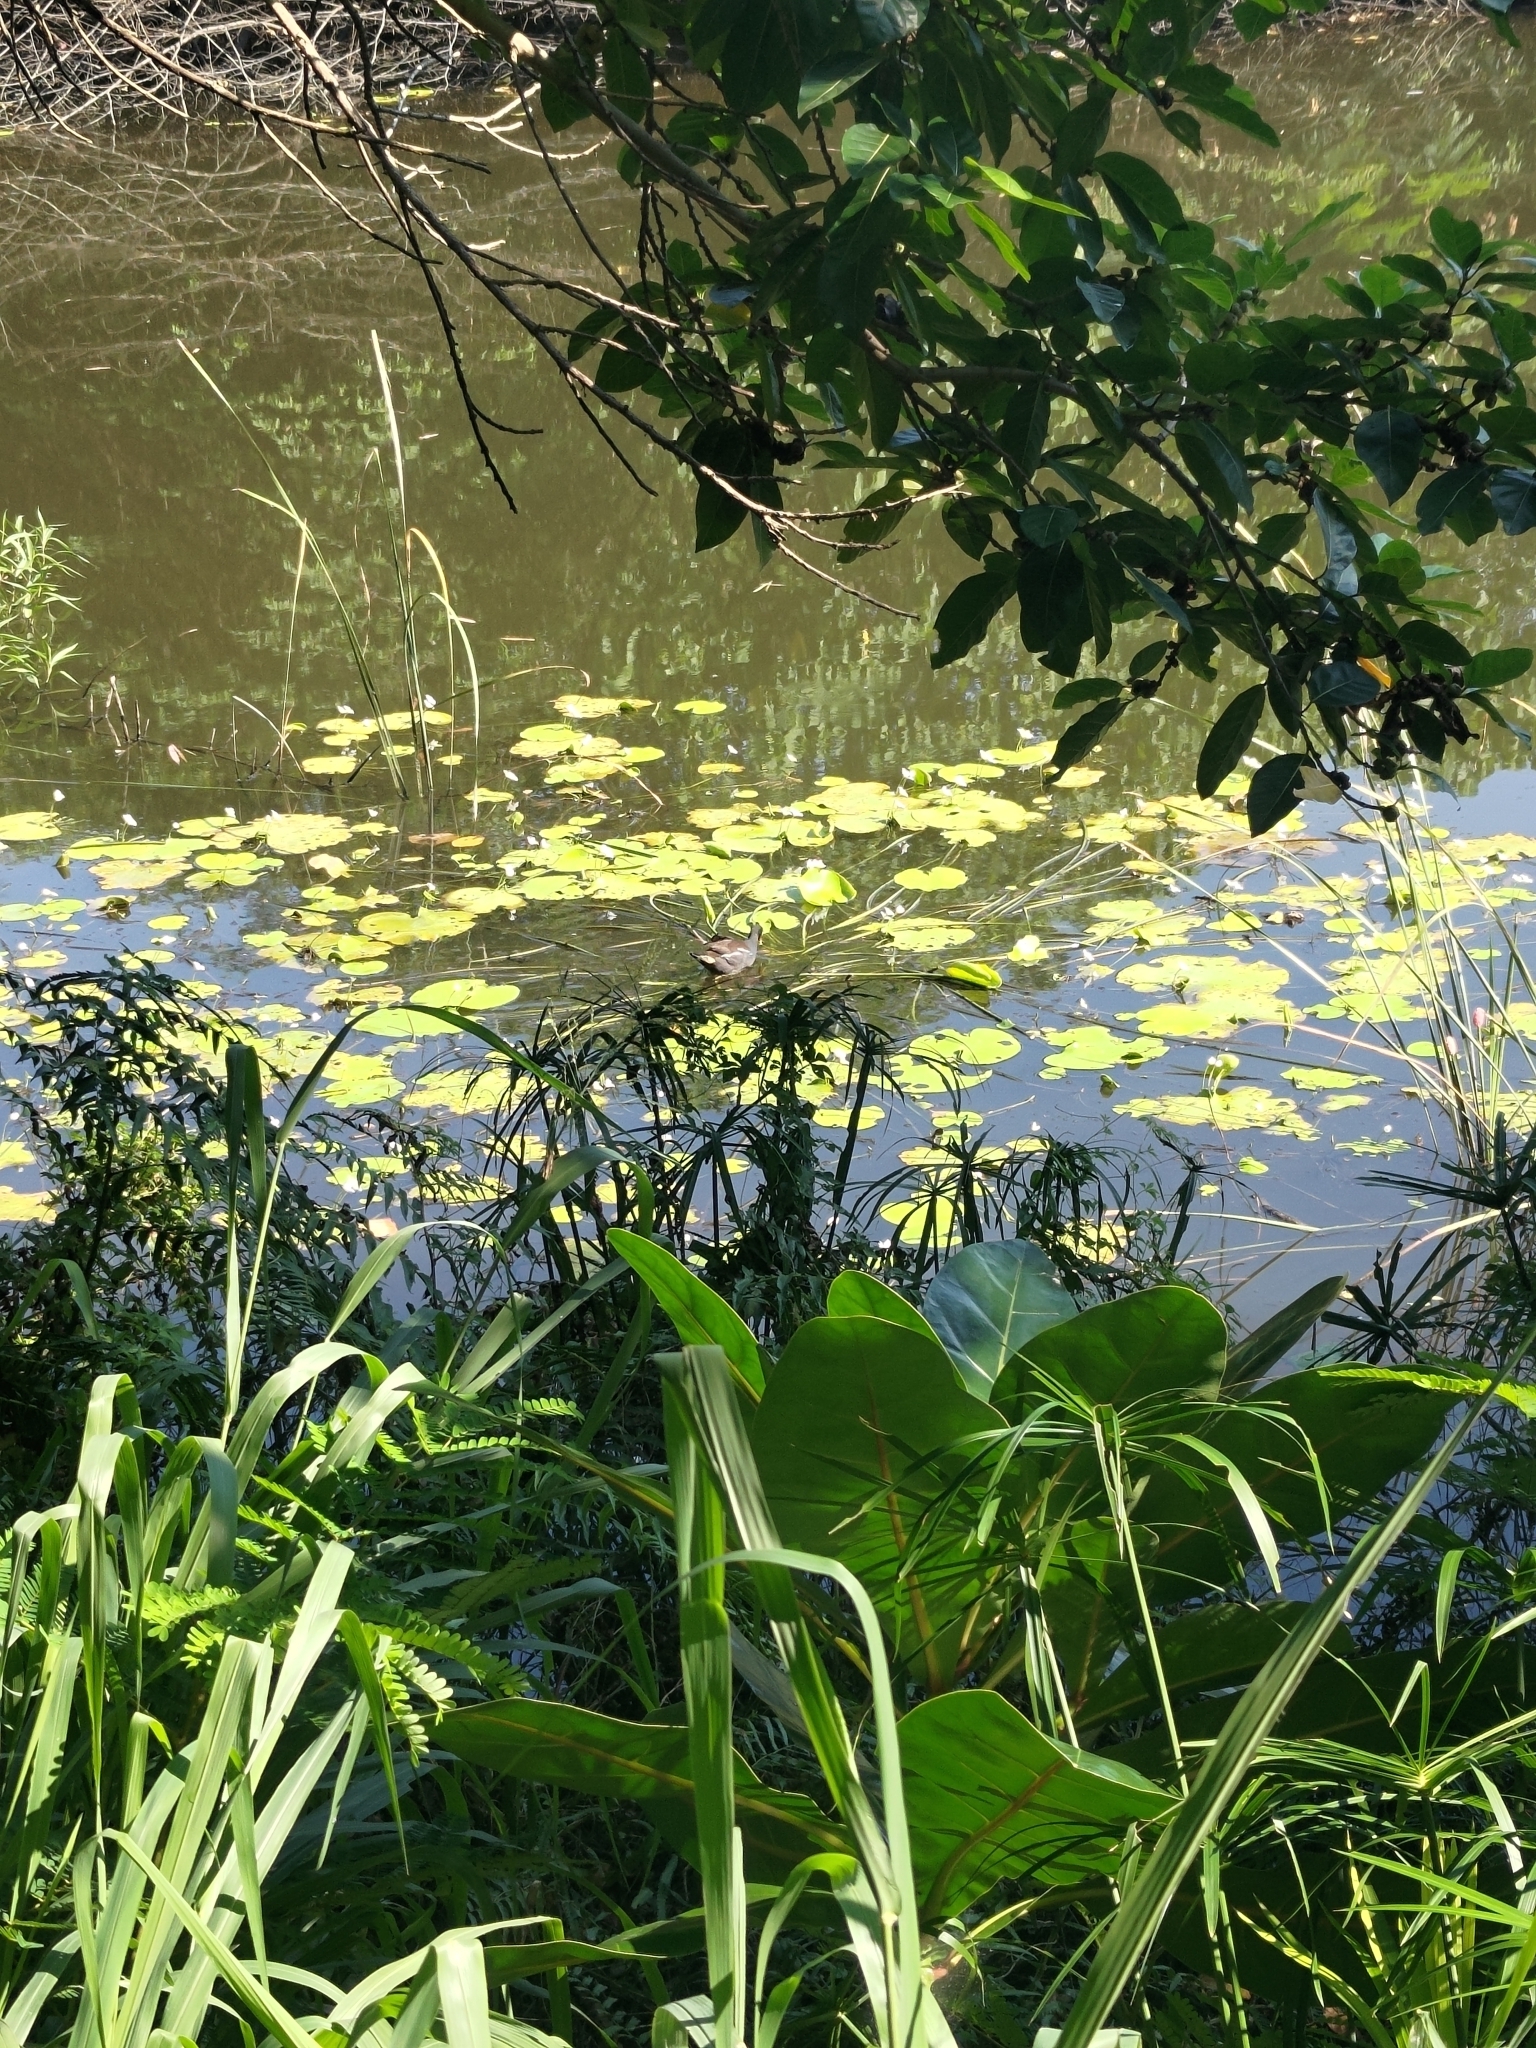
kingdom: Animalia
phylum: Chordata
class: Aves
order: Gruiformes
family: Rallidae
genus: Gallinula
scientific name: Gallinula chloropus
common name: Common moorhen
